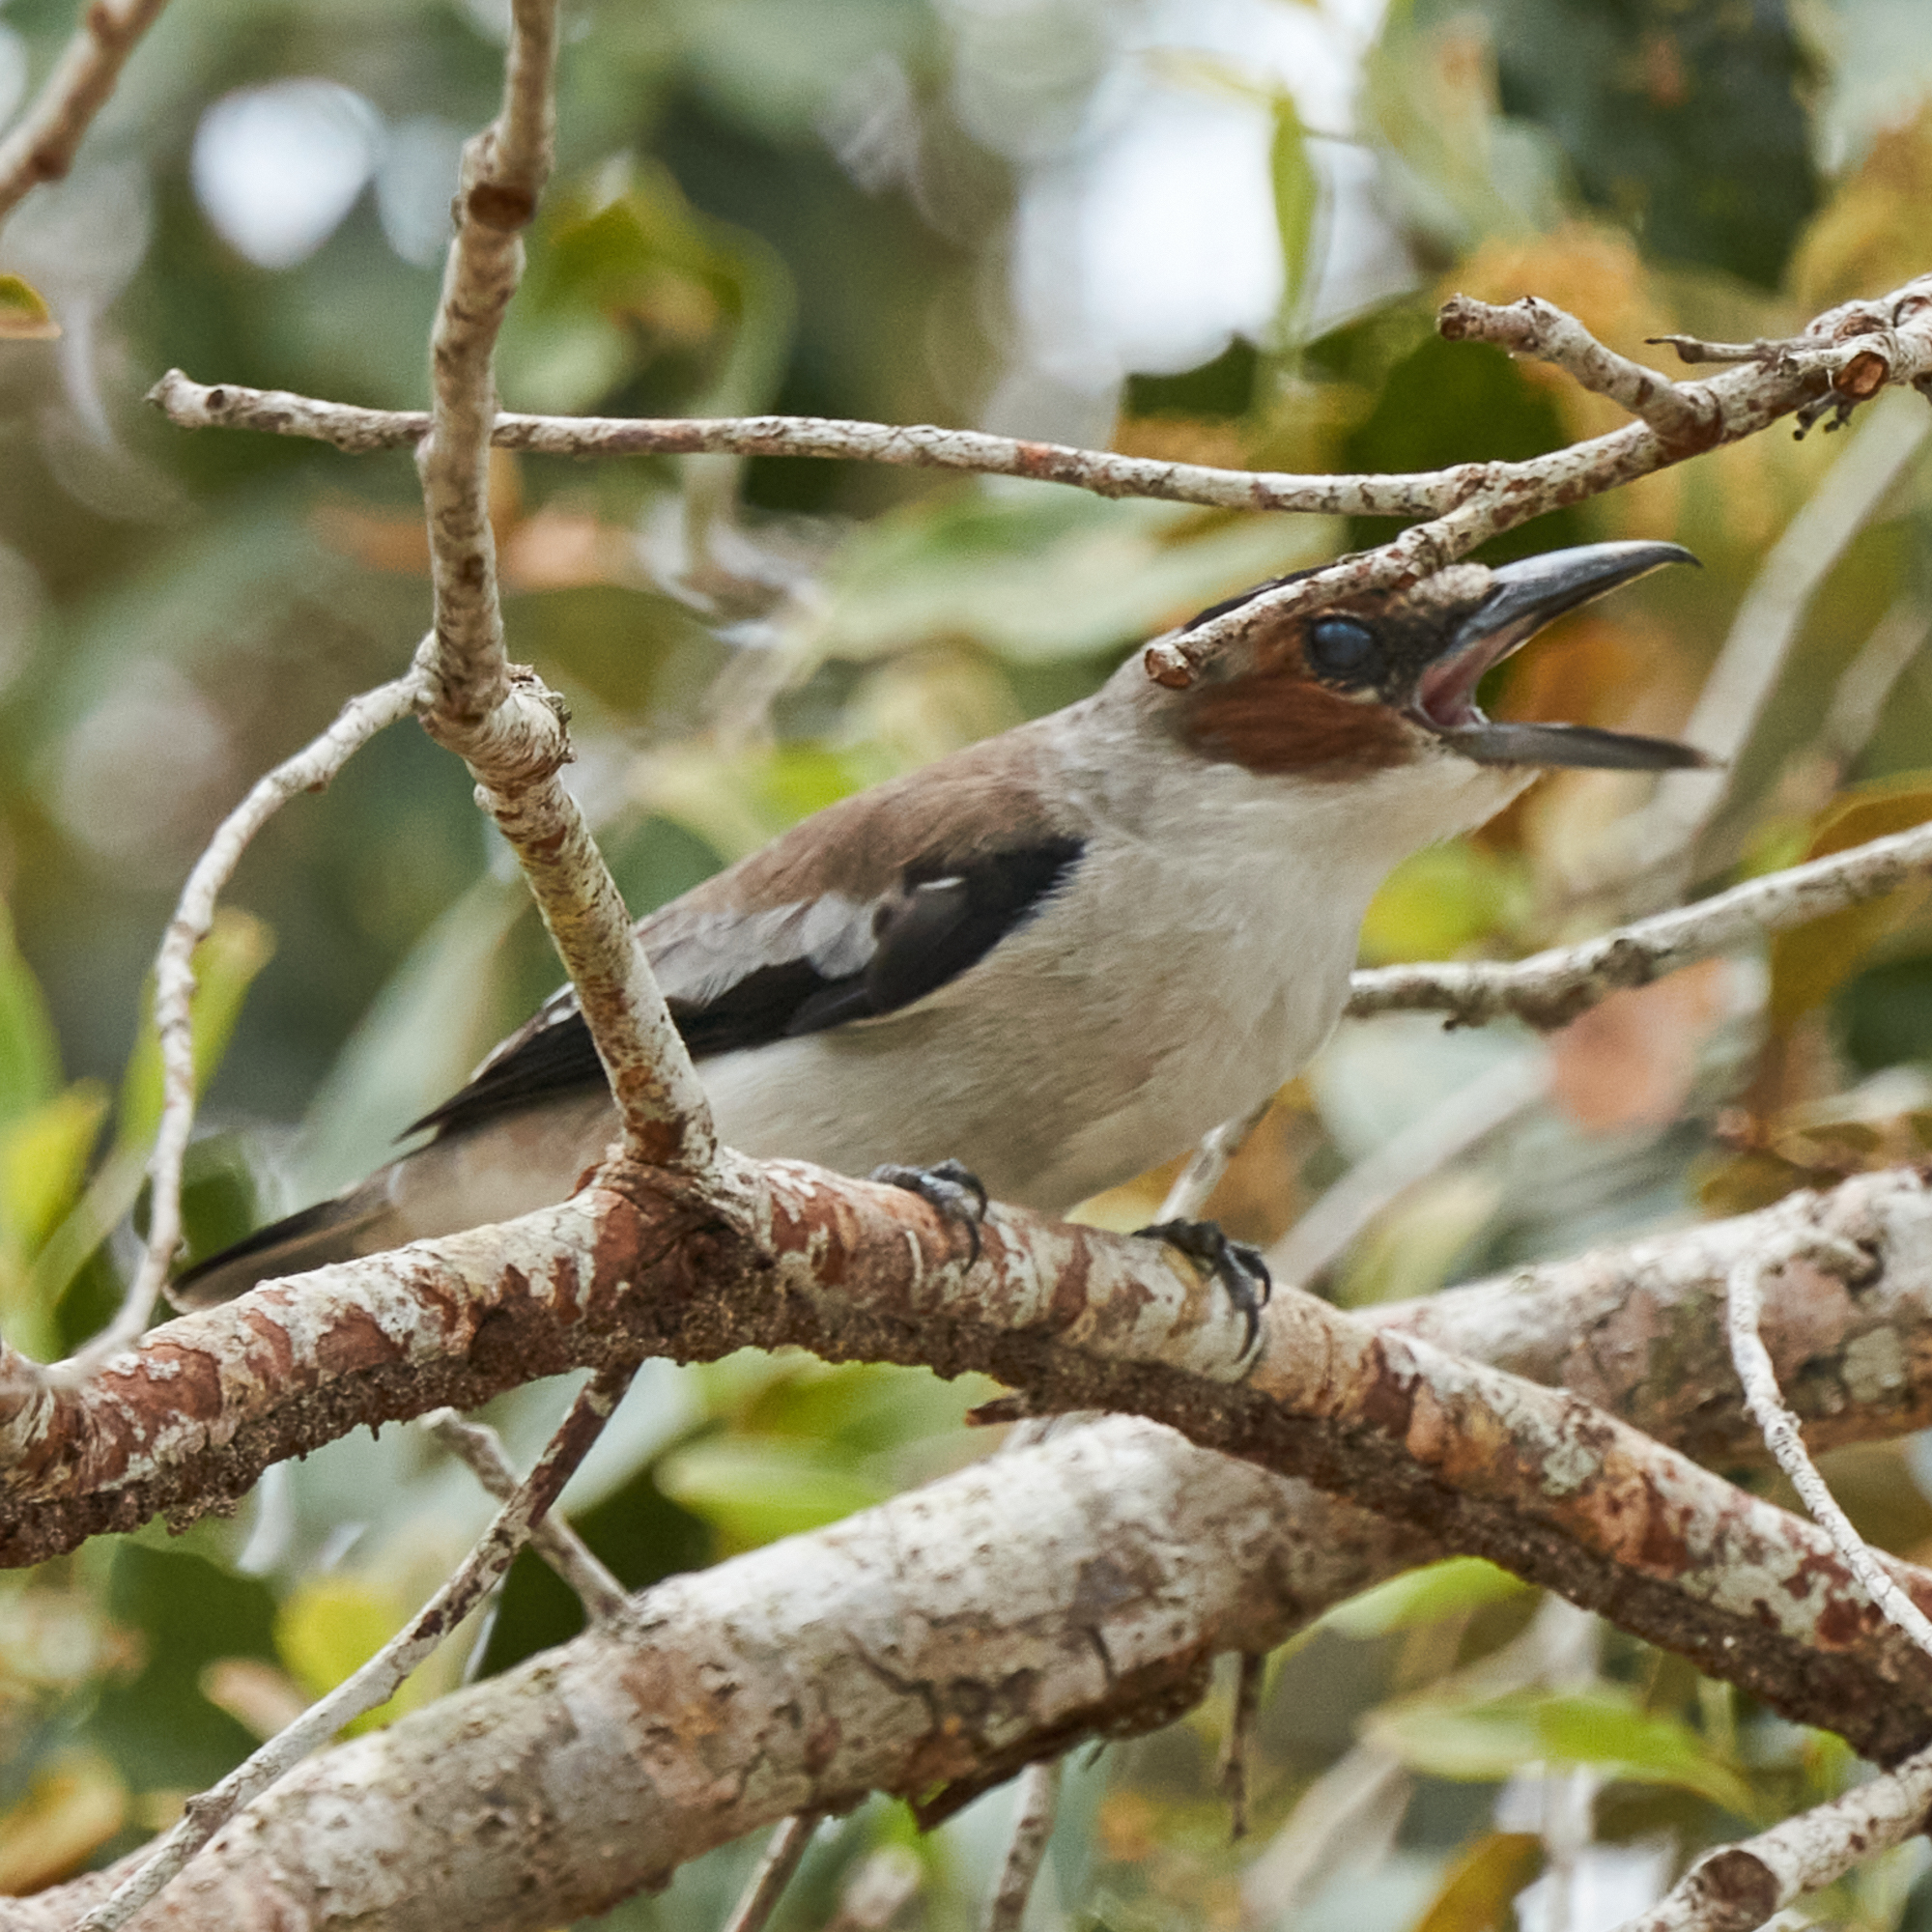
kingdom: Animalia
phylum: Chordata
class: Aves
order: Passeriformes
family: Cotingidae
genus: Tityra
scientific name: Tityra inquisitor
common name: Black-crowned tityra
